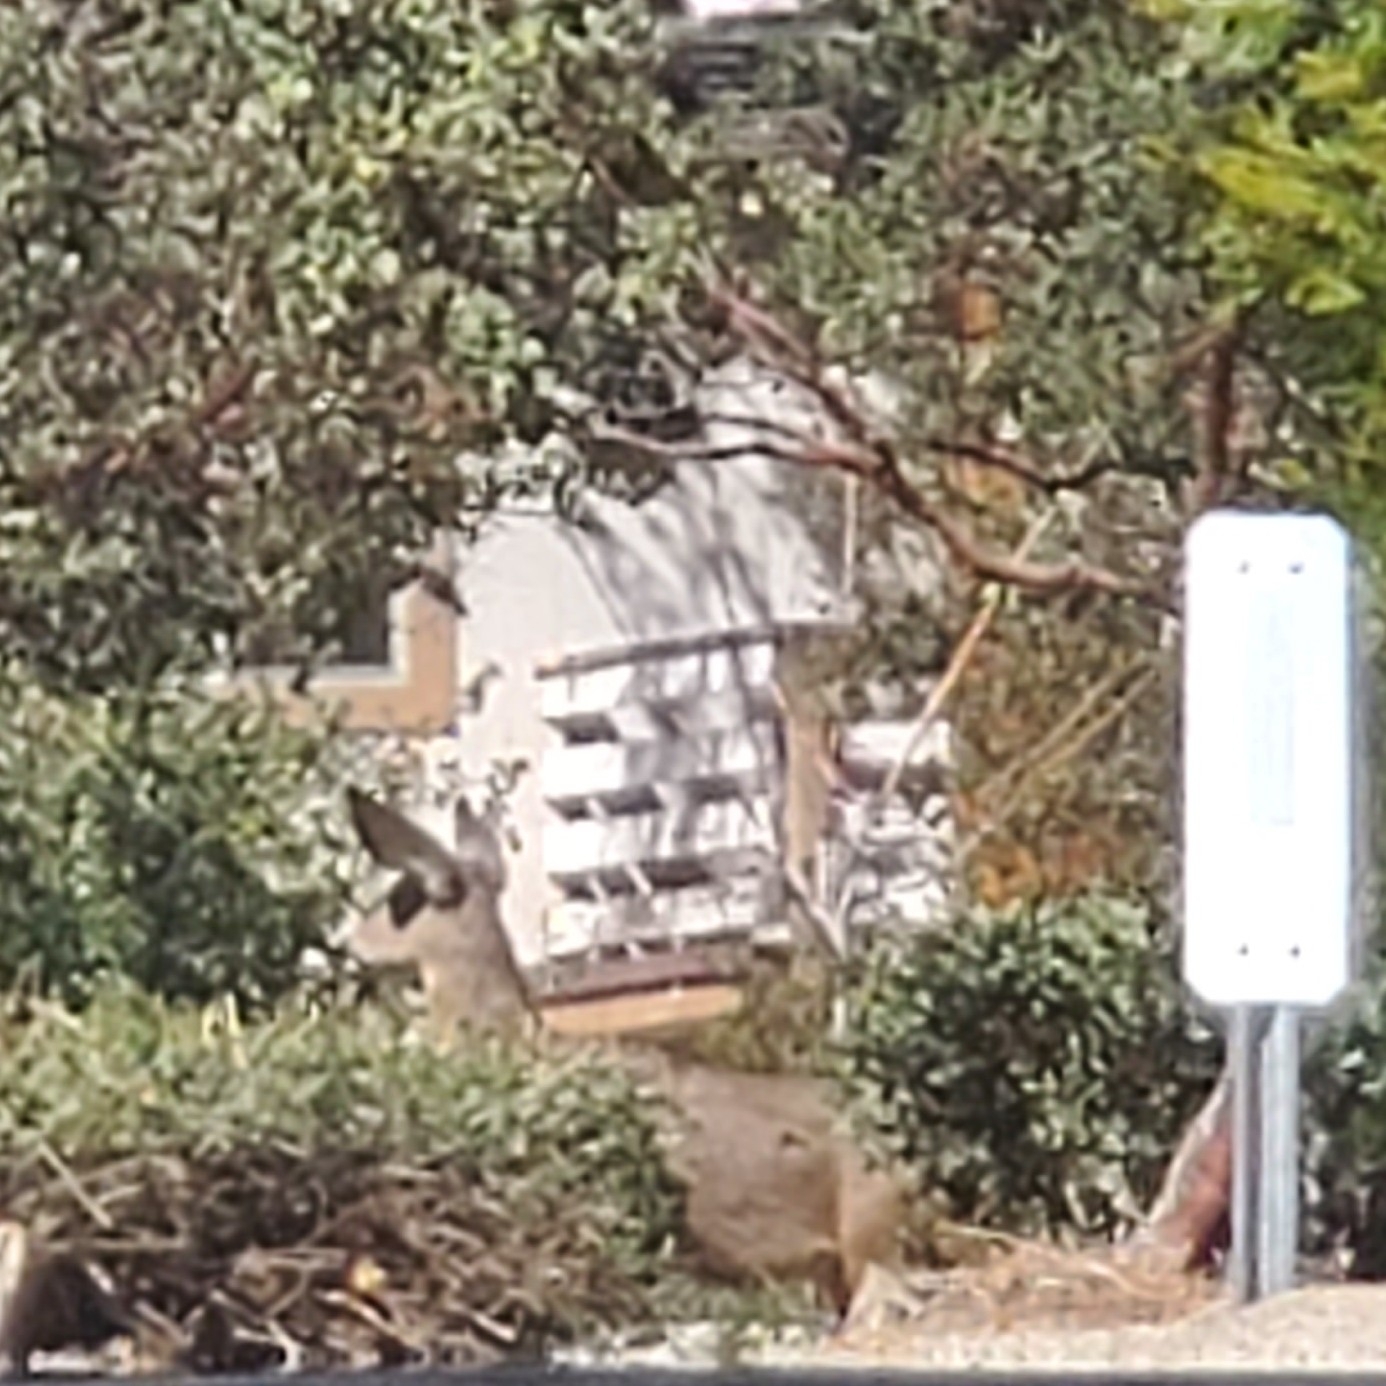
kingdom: Animalia
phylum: Chordata
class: Mammalia
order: Artiodactyla
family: Cervidae
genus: Odocoileus
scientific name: Odocoileus hemionus
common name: Mule deer
